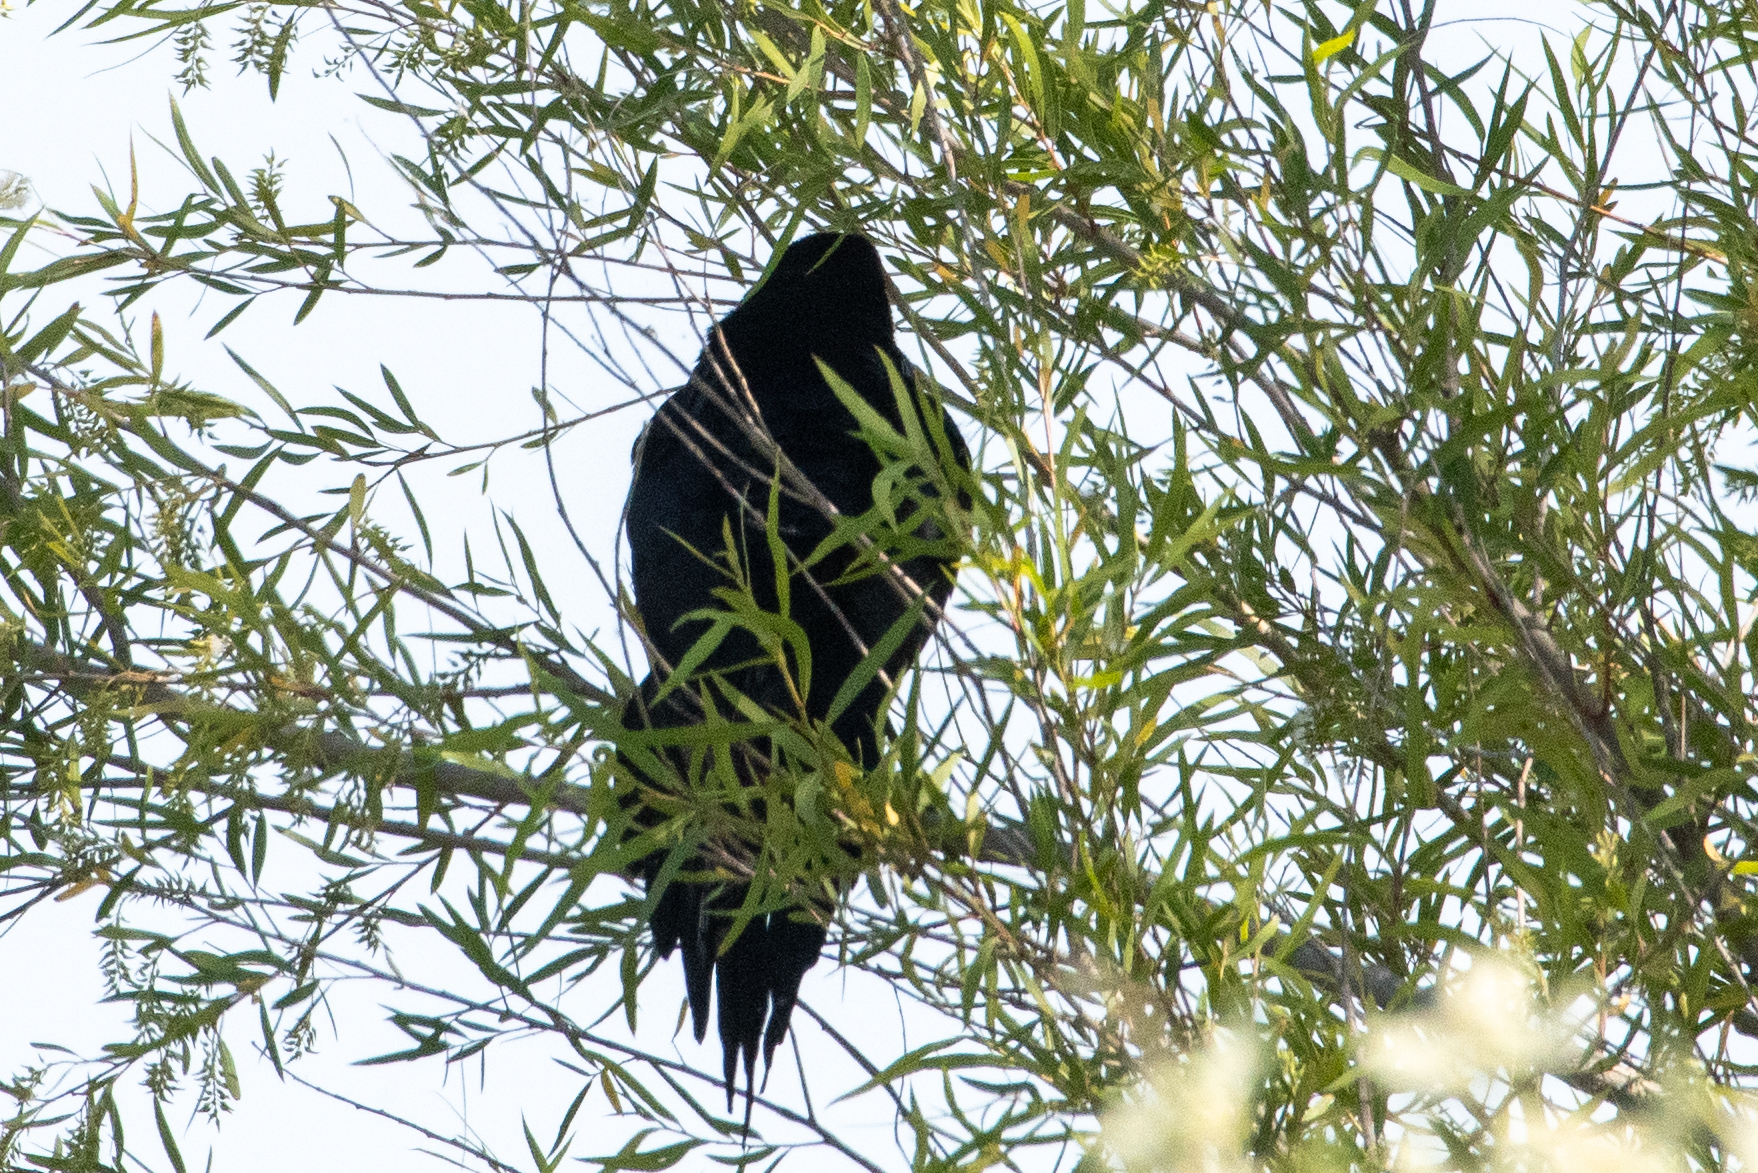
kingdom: Animalia
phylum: Chordata
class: Aves
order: Passeriformes
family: Corvidae
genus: Corvus
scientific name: Corvus brachyrhynchos
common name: American crow
